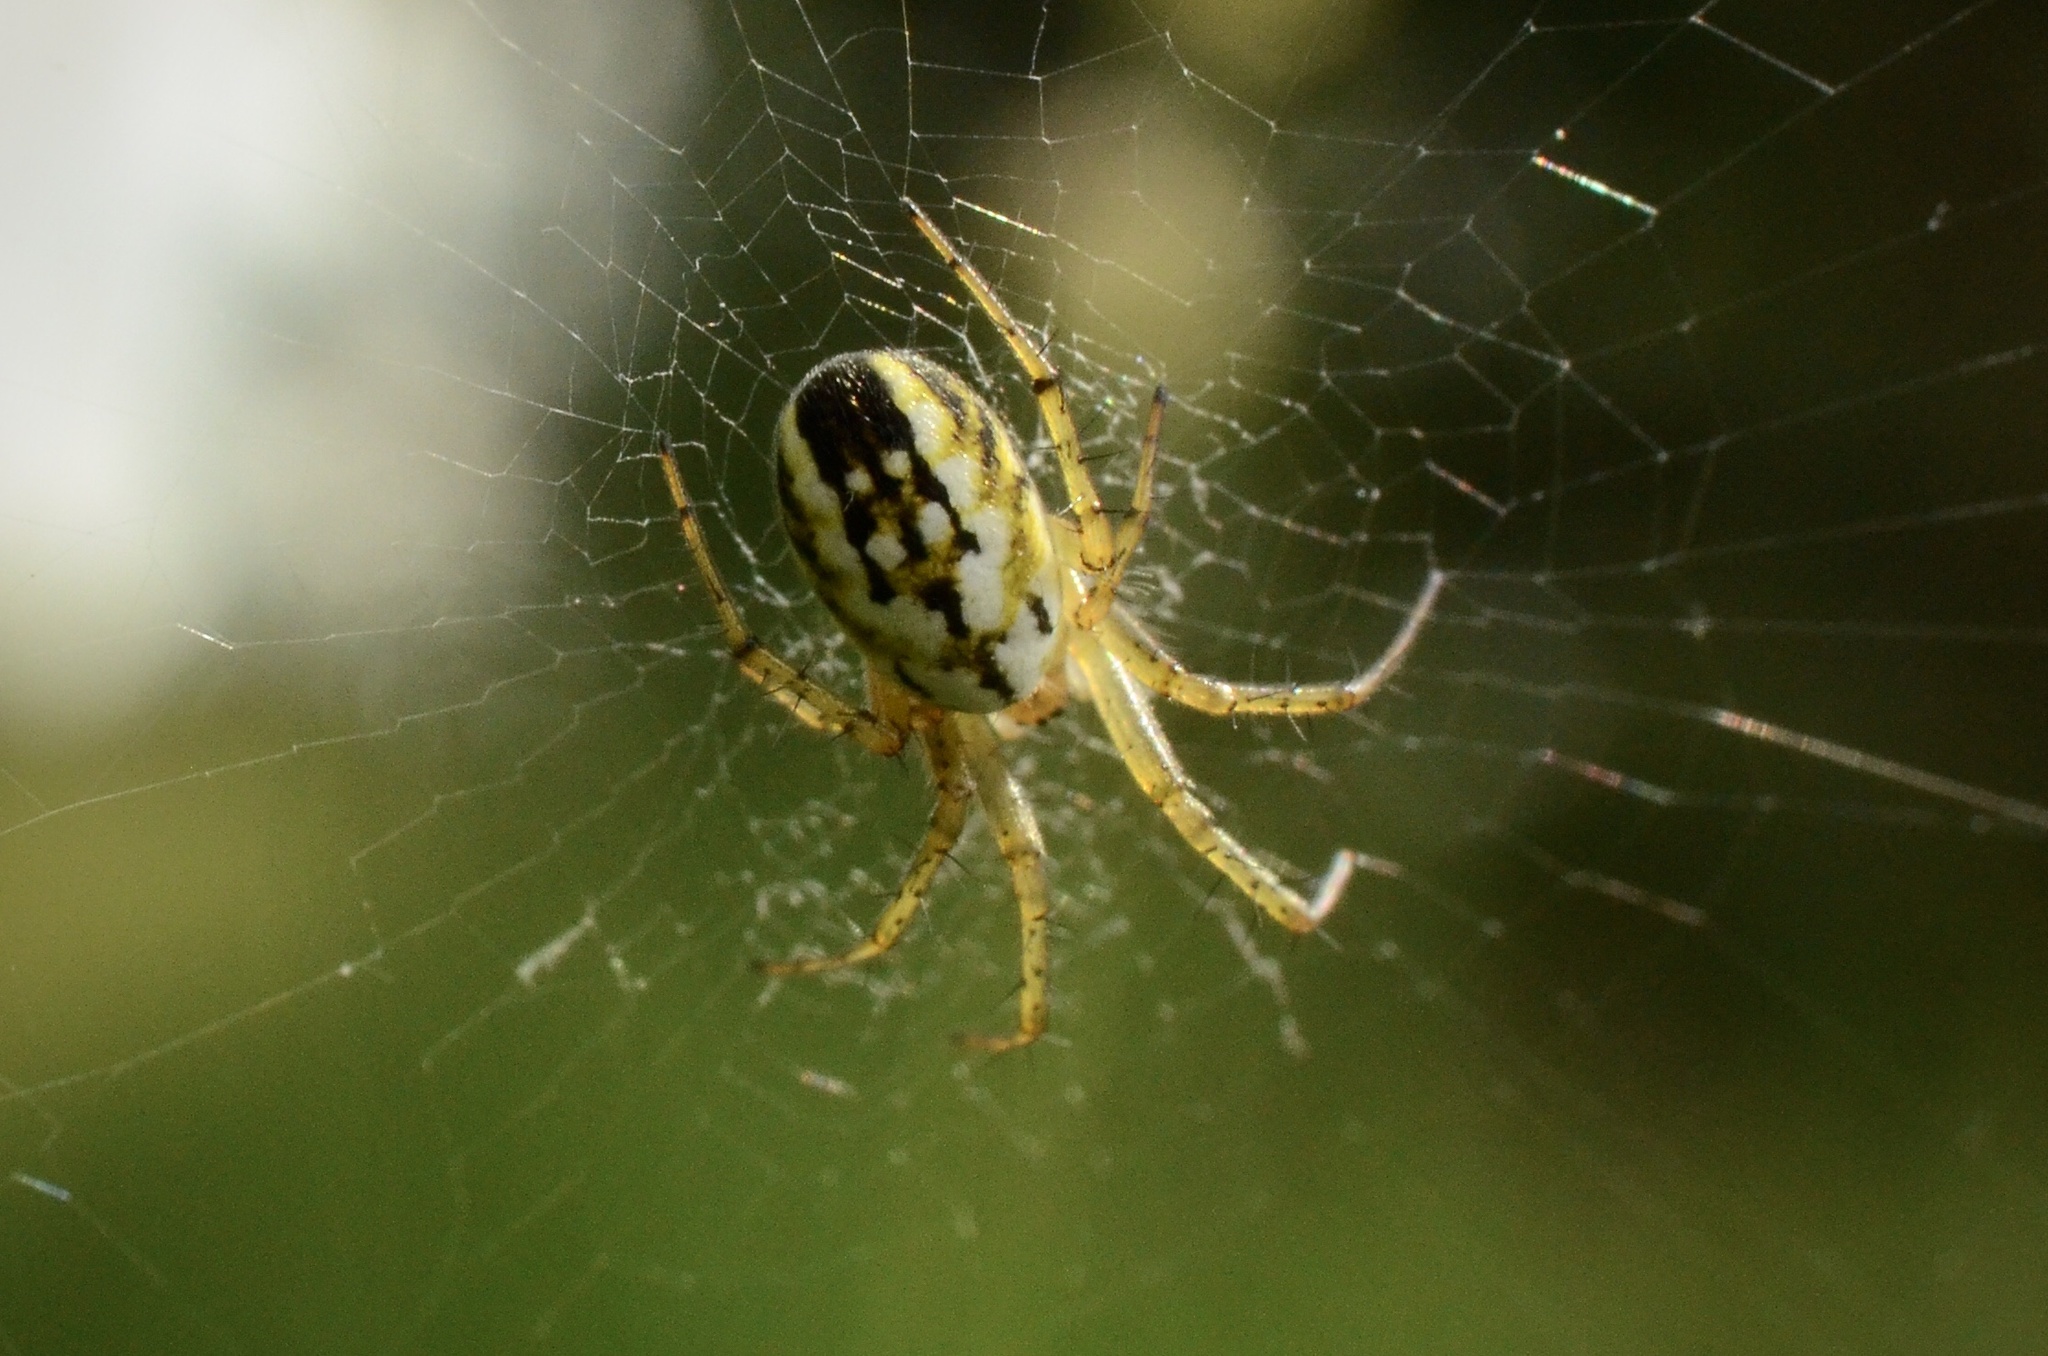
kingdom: Animalia
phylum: Arthropoda
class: Arachnida
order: Araneae
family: Araneidae
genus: Mangora
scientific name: Mangora acalypha
